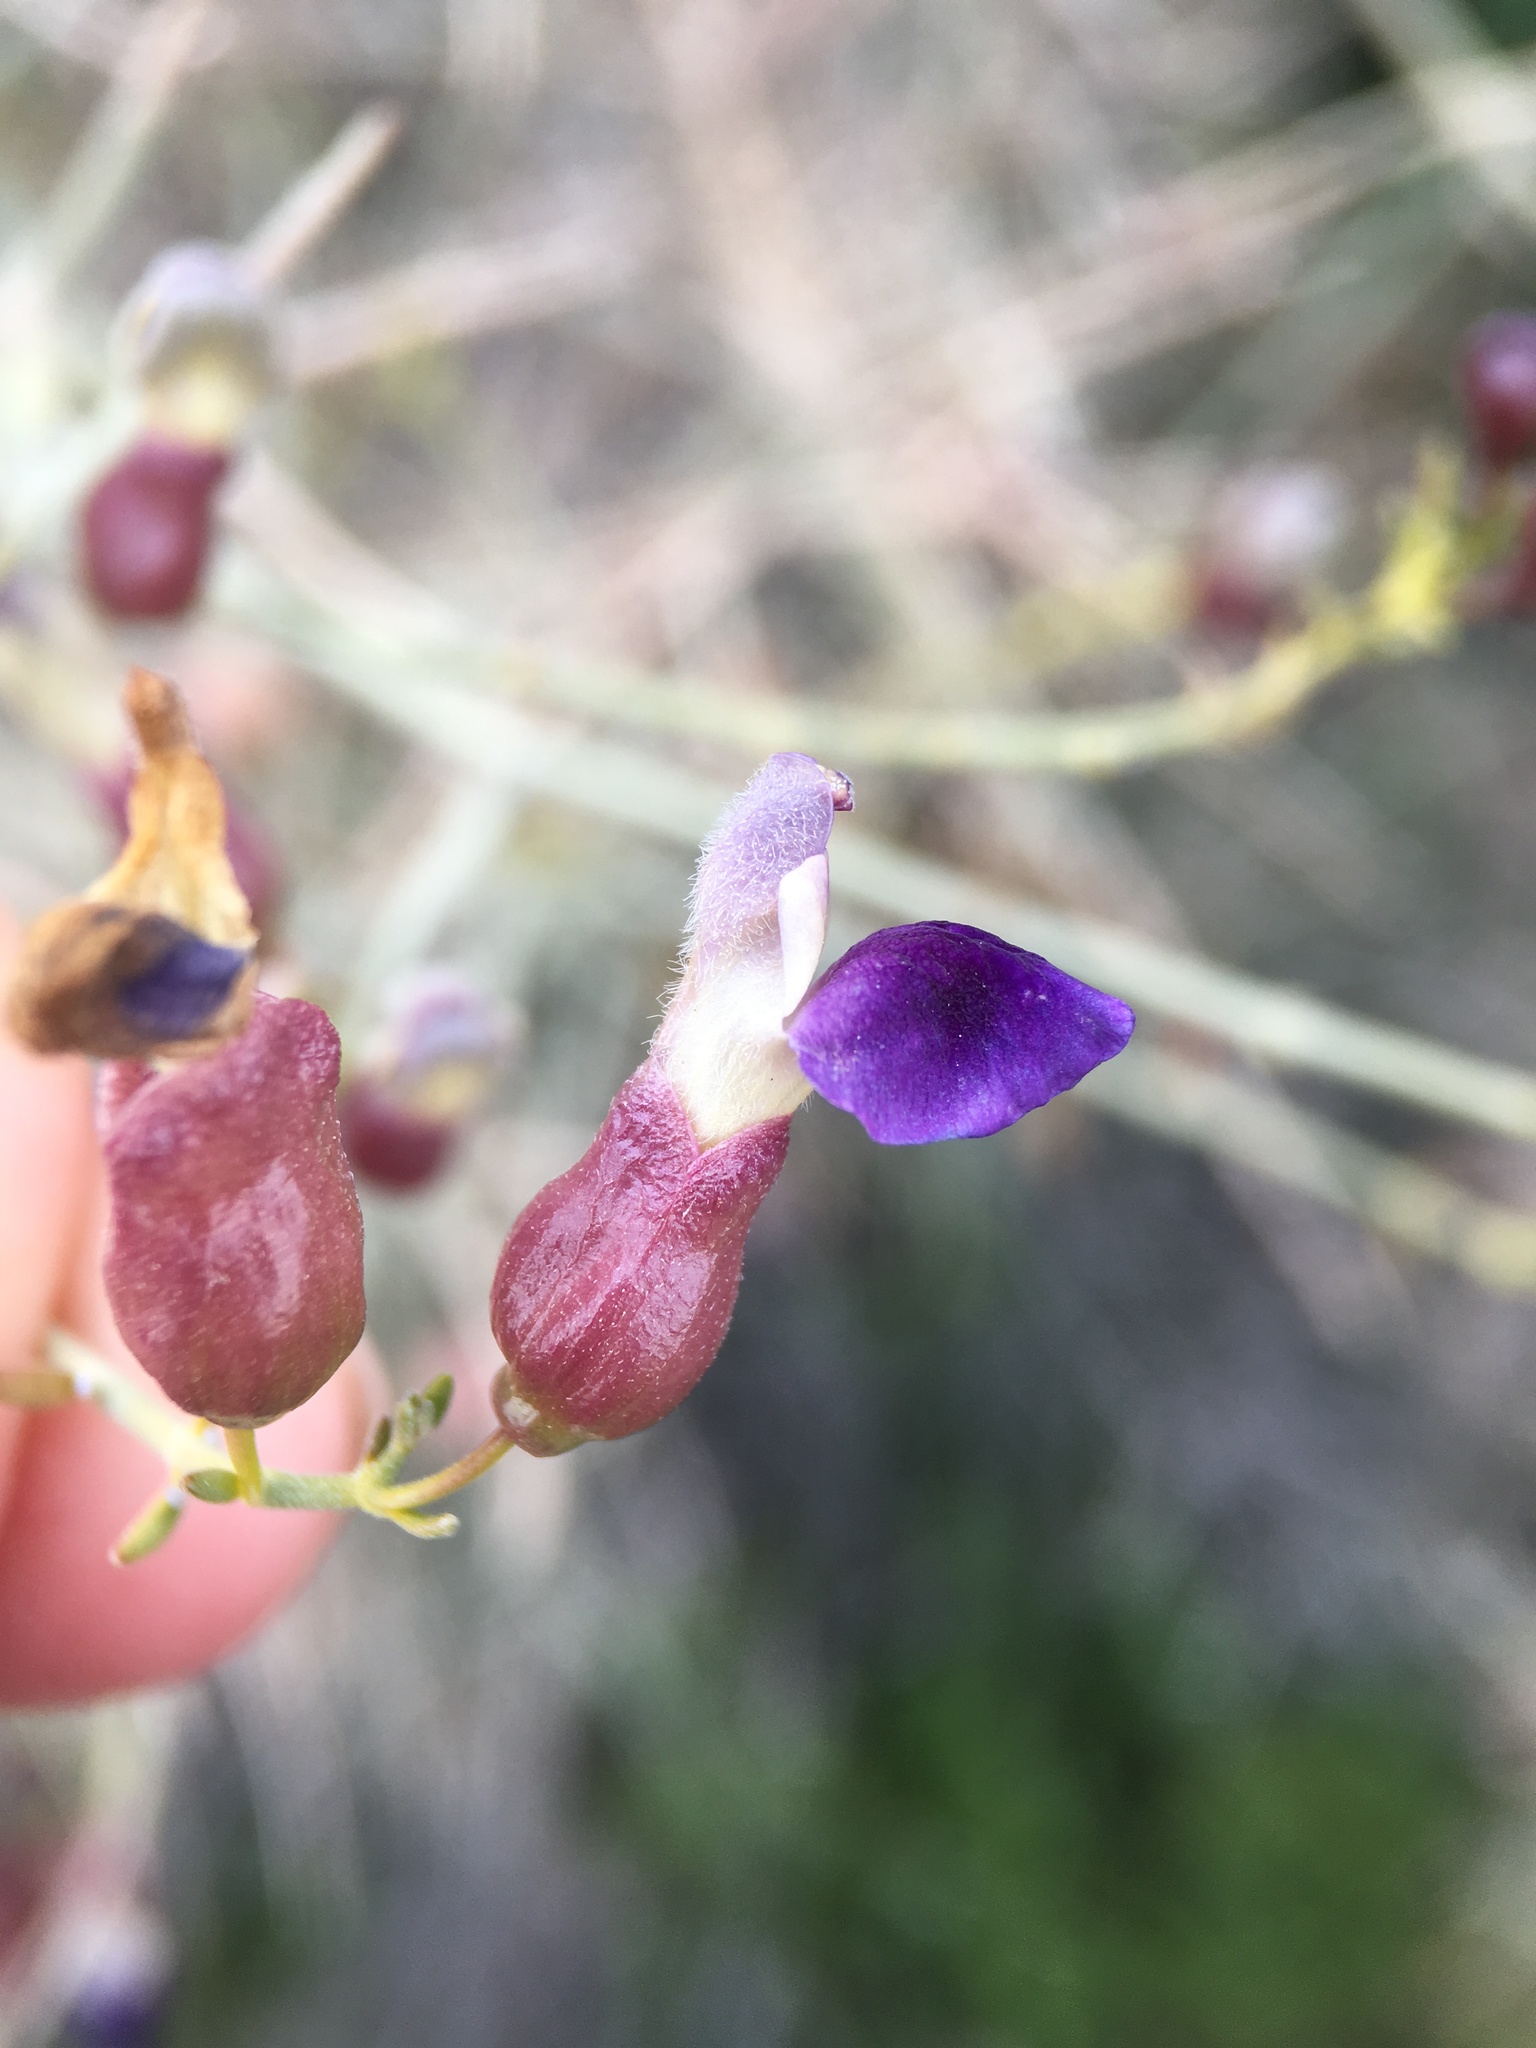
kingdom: Plantae
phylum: Tracheophyta
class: Magnoliopsida
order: Lamiales
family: Lamiaceae
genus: Scutellaria
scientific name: Scutellaria mexicana
